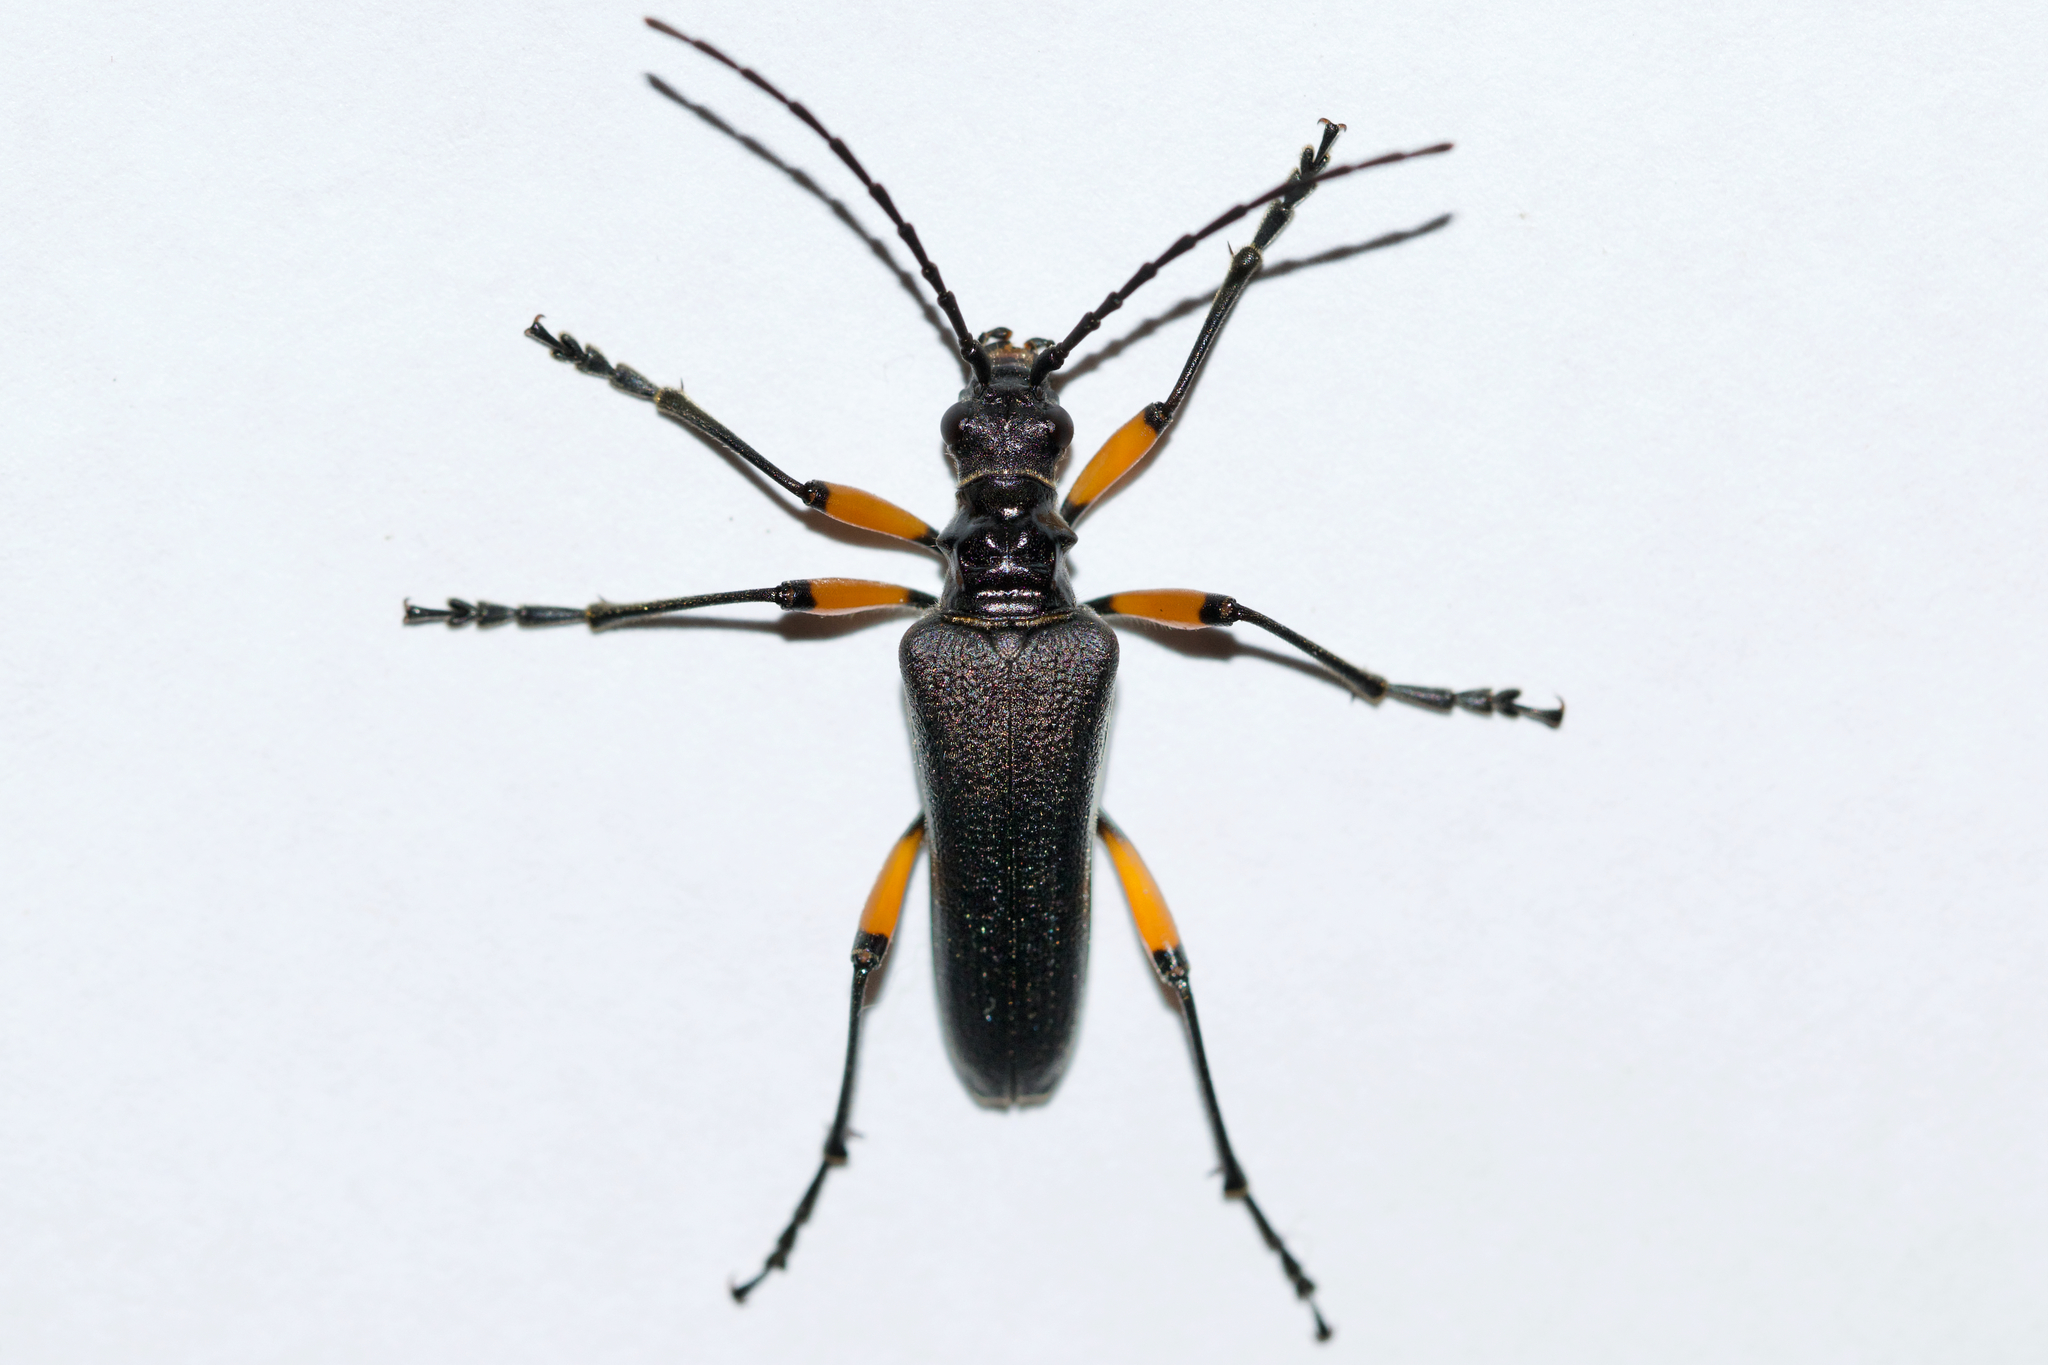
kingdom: Animalia
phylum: Arthropoda
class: Insecta
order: Coleoptera
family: Cerambycidae
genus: Stenocorus
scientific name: Stenocorus schaumii
